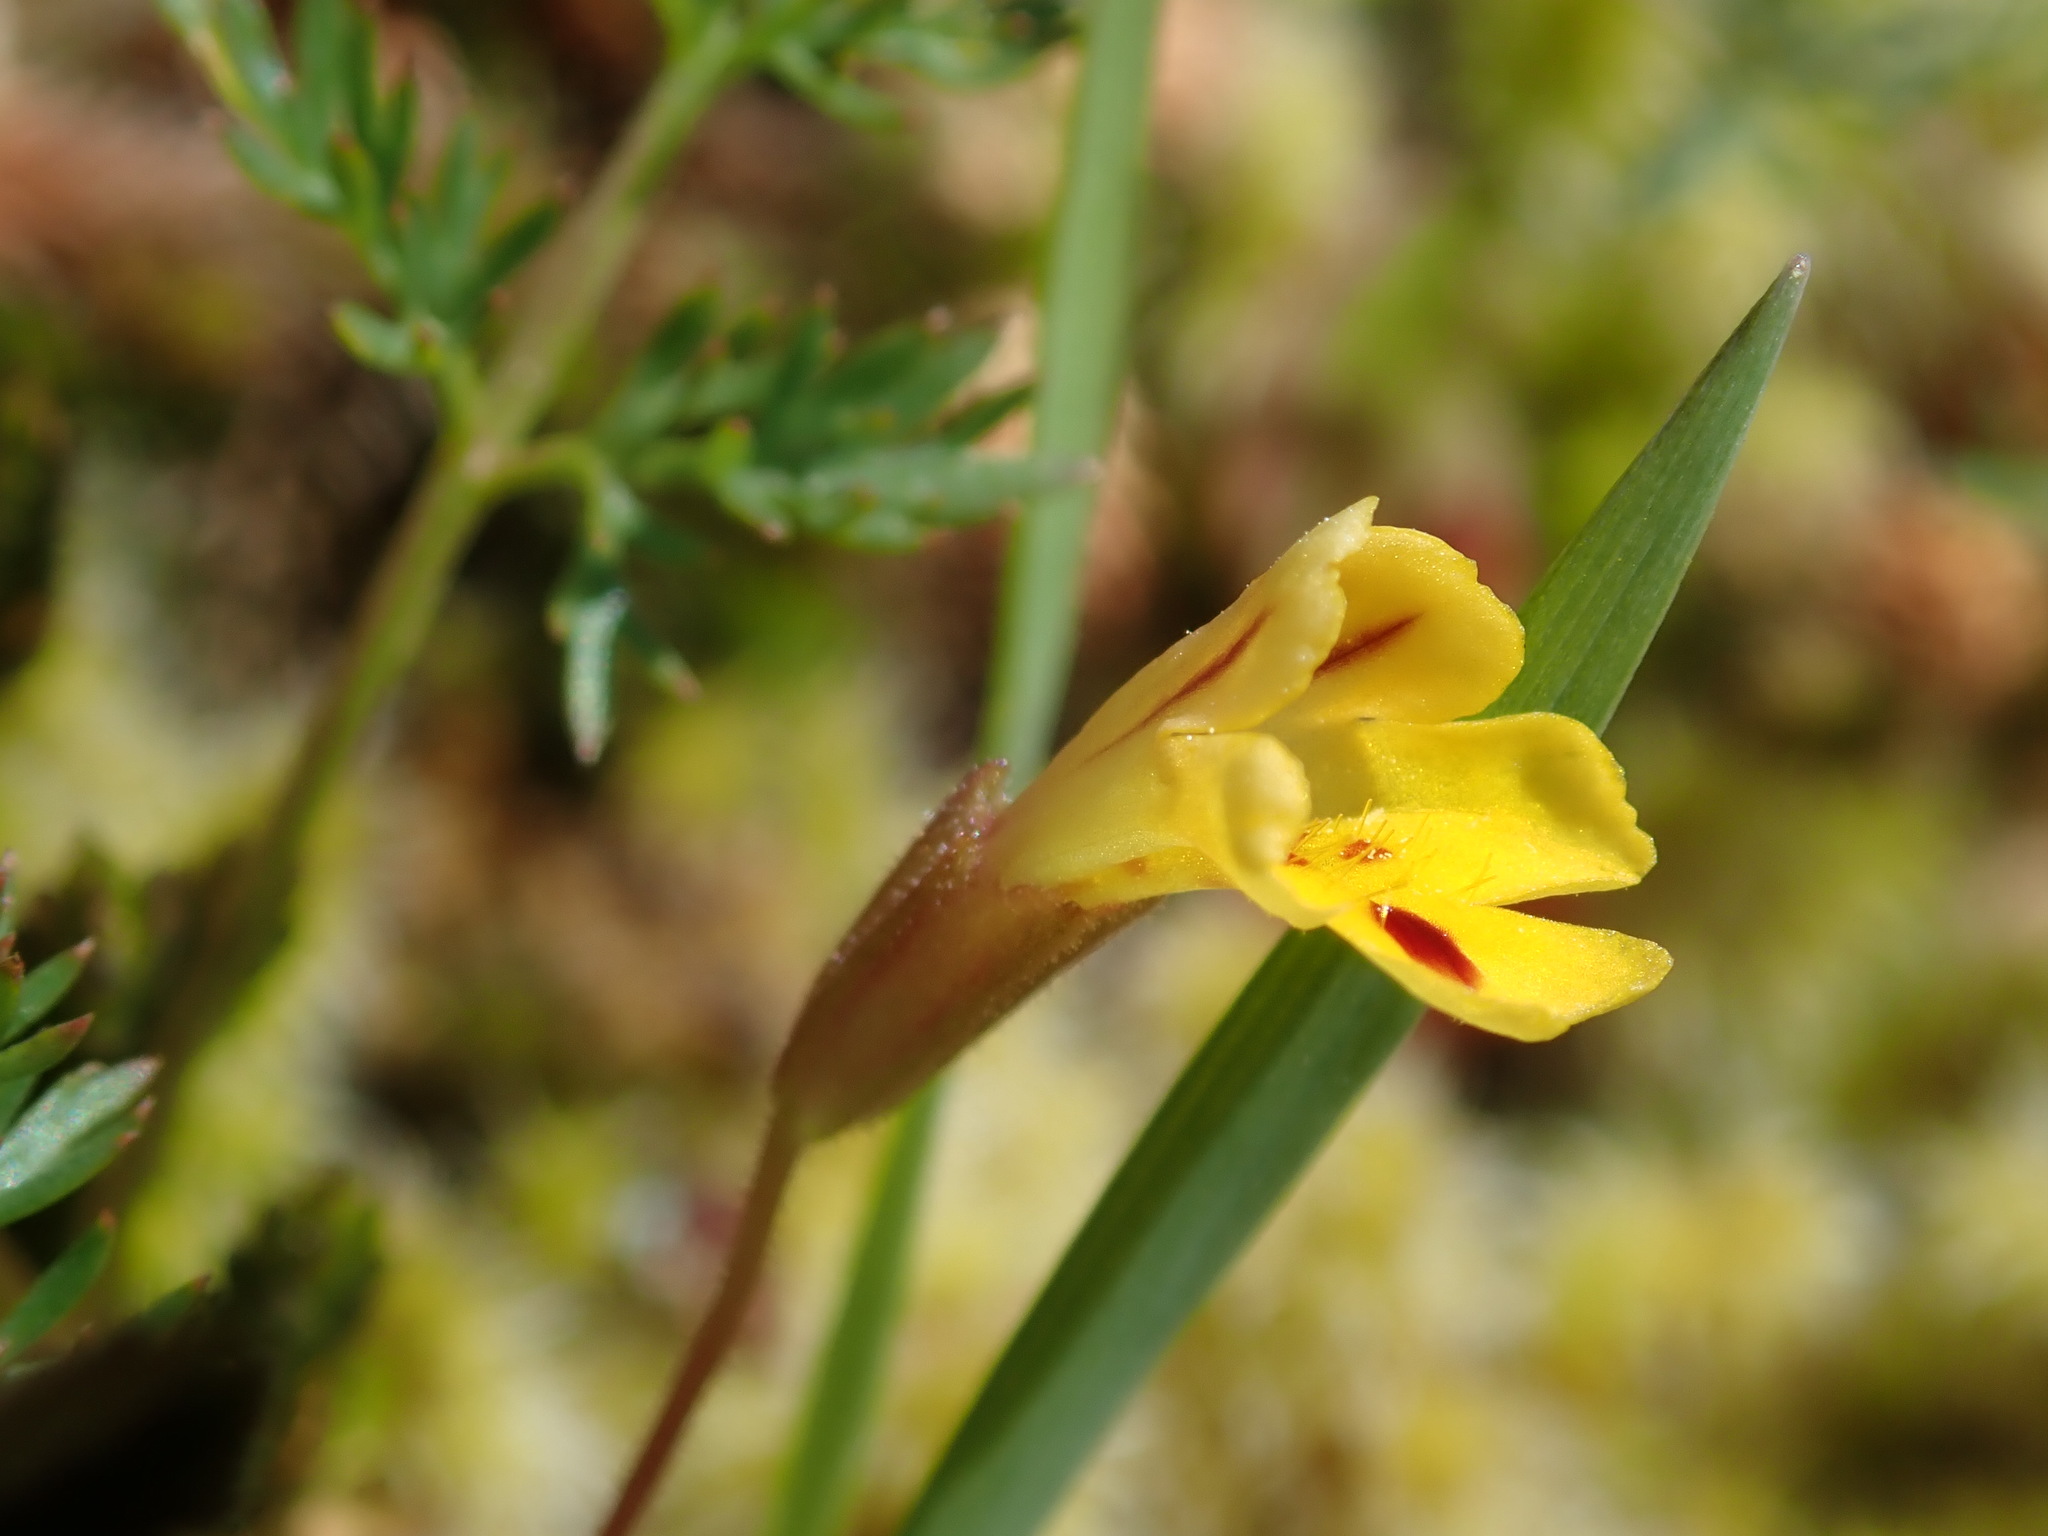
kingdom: Plantae
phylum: Tracheophyta
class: Magnoliopsida
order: Lamiales
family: Phrymaceae
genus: Erythranthe
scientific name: Erythranthe alsinoides
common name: Chickweed monkeyflower
